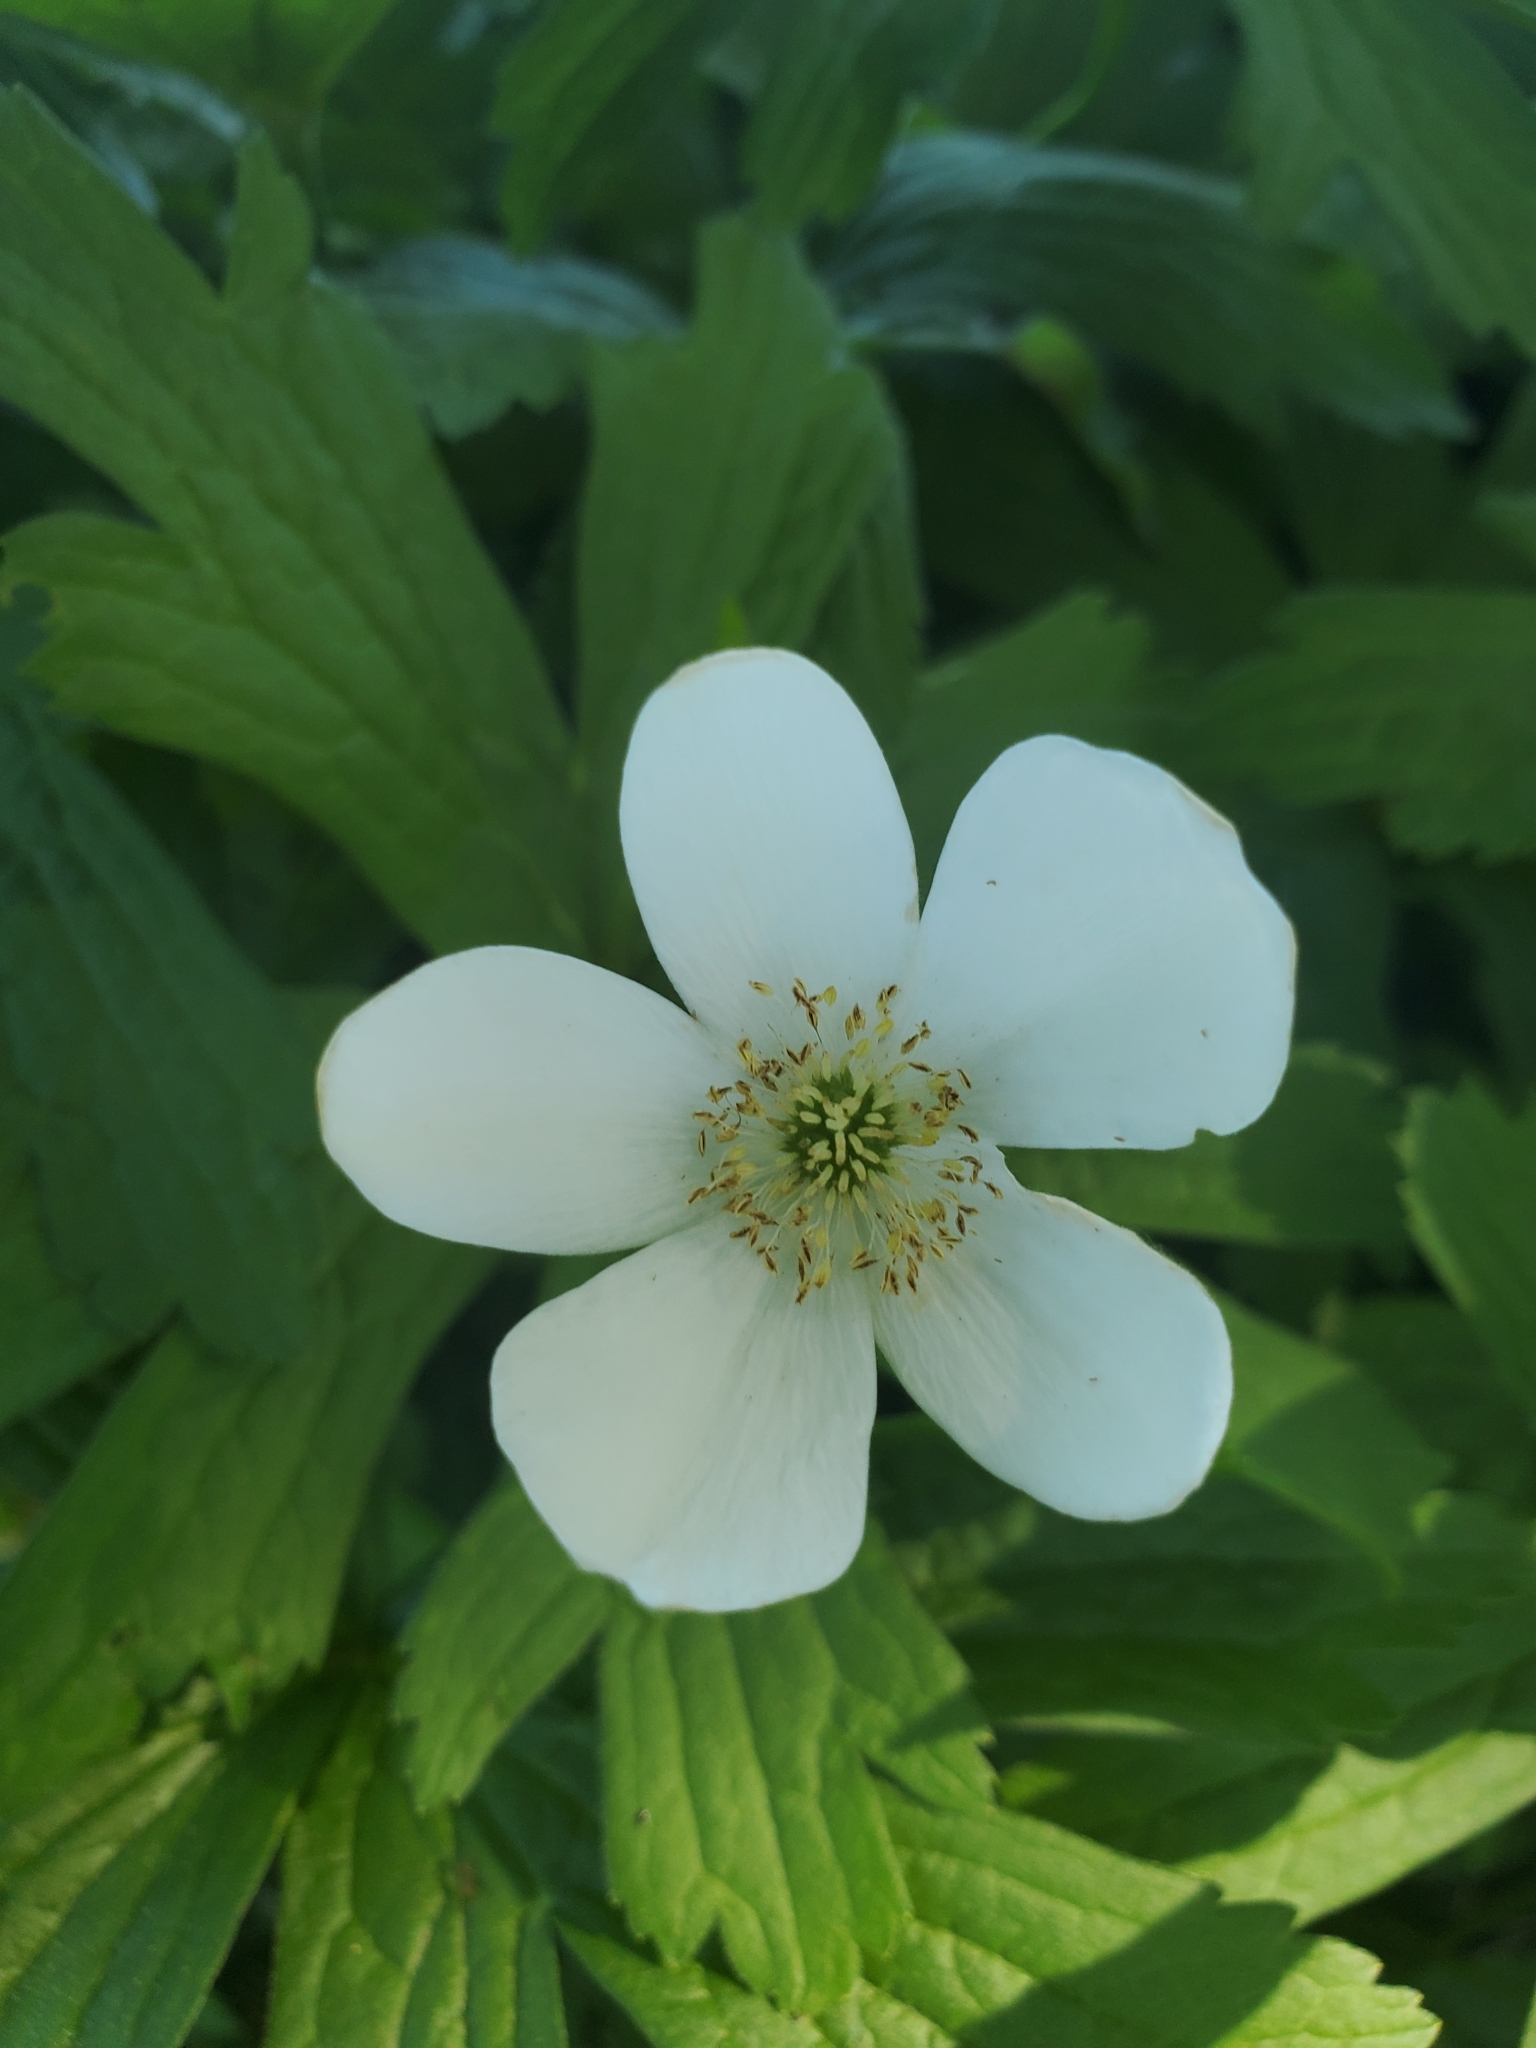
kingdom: Plantae
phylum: Tracheophyta
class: Magnoliopsida
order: Ranunculales
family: Ranunculaceae
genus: Anemonastrum
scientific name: Anemonastrum canadense
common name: Canada anemone
